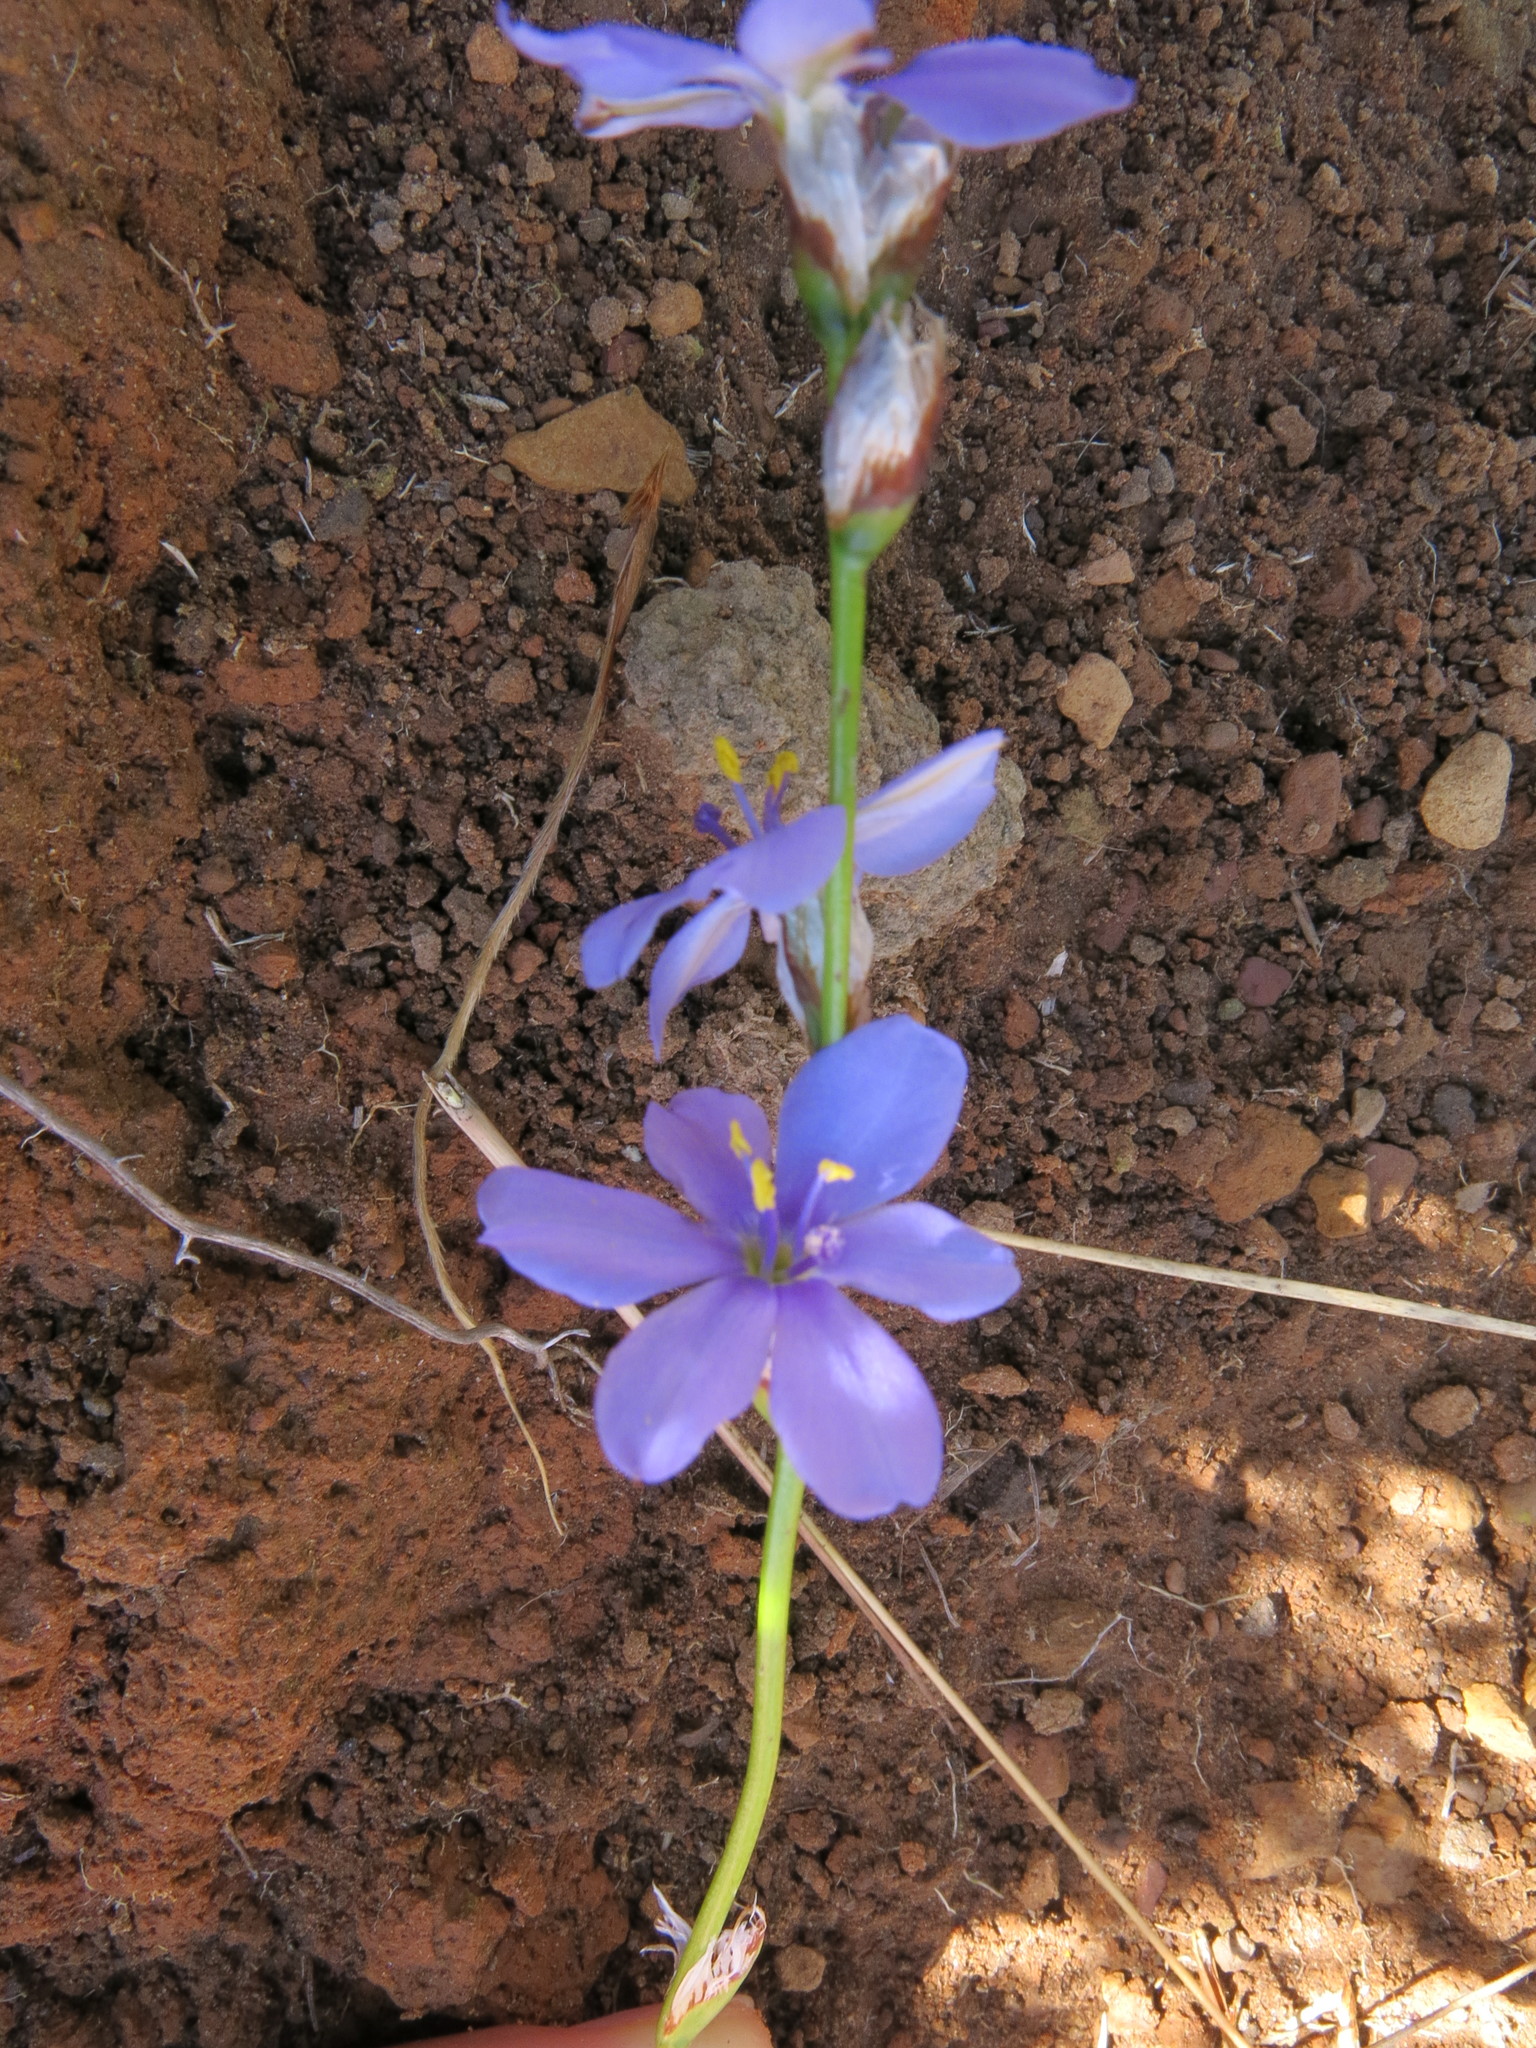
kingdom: Plantae
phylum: Tracheophyta
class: Liliopsida
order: Asparagales
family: Iridaceae
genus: Aristea
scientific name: Aristea abyssinica
